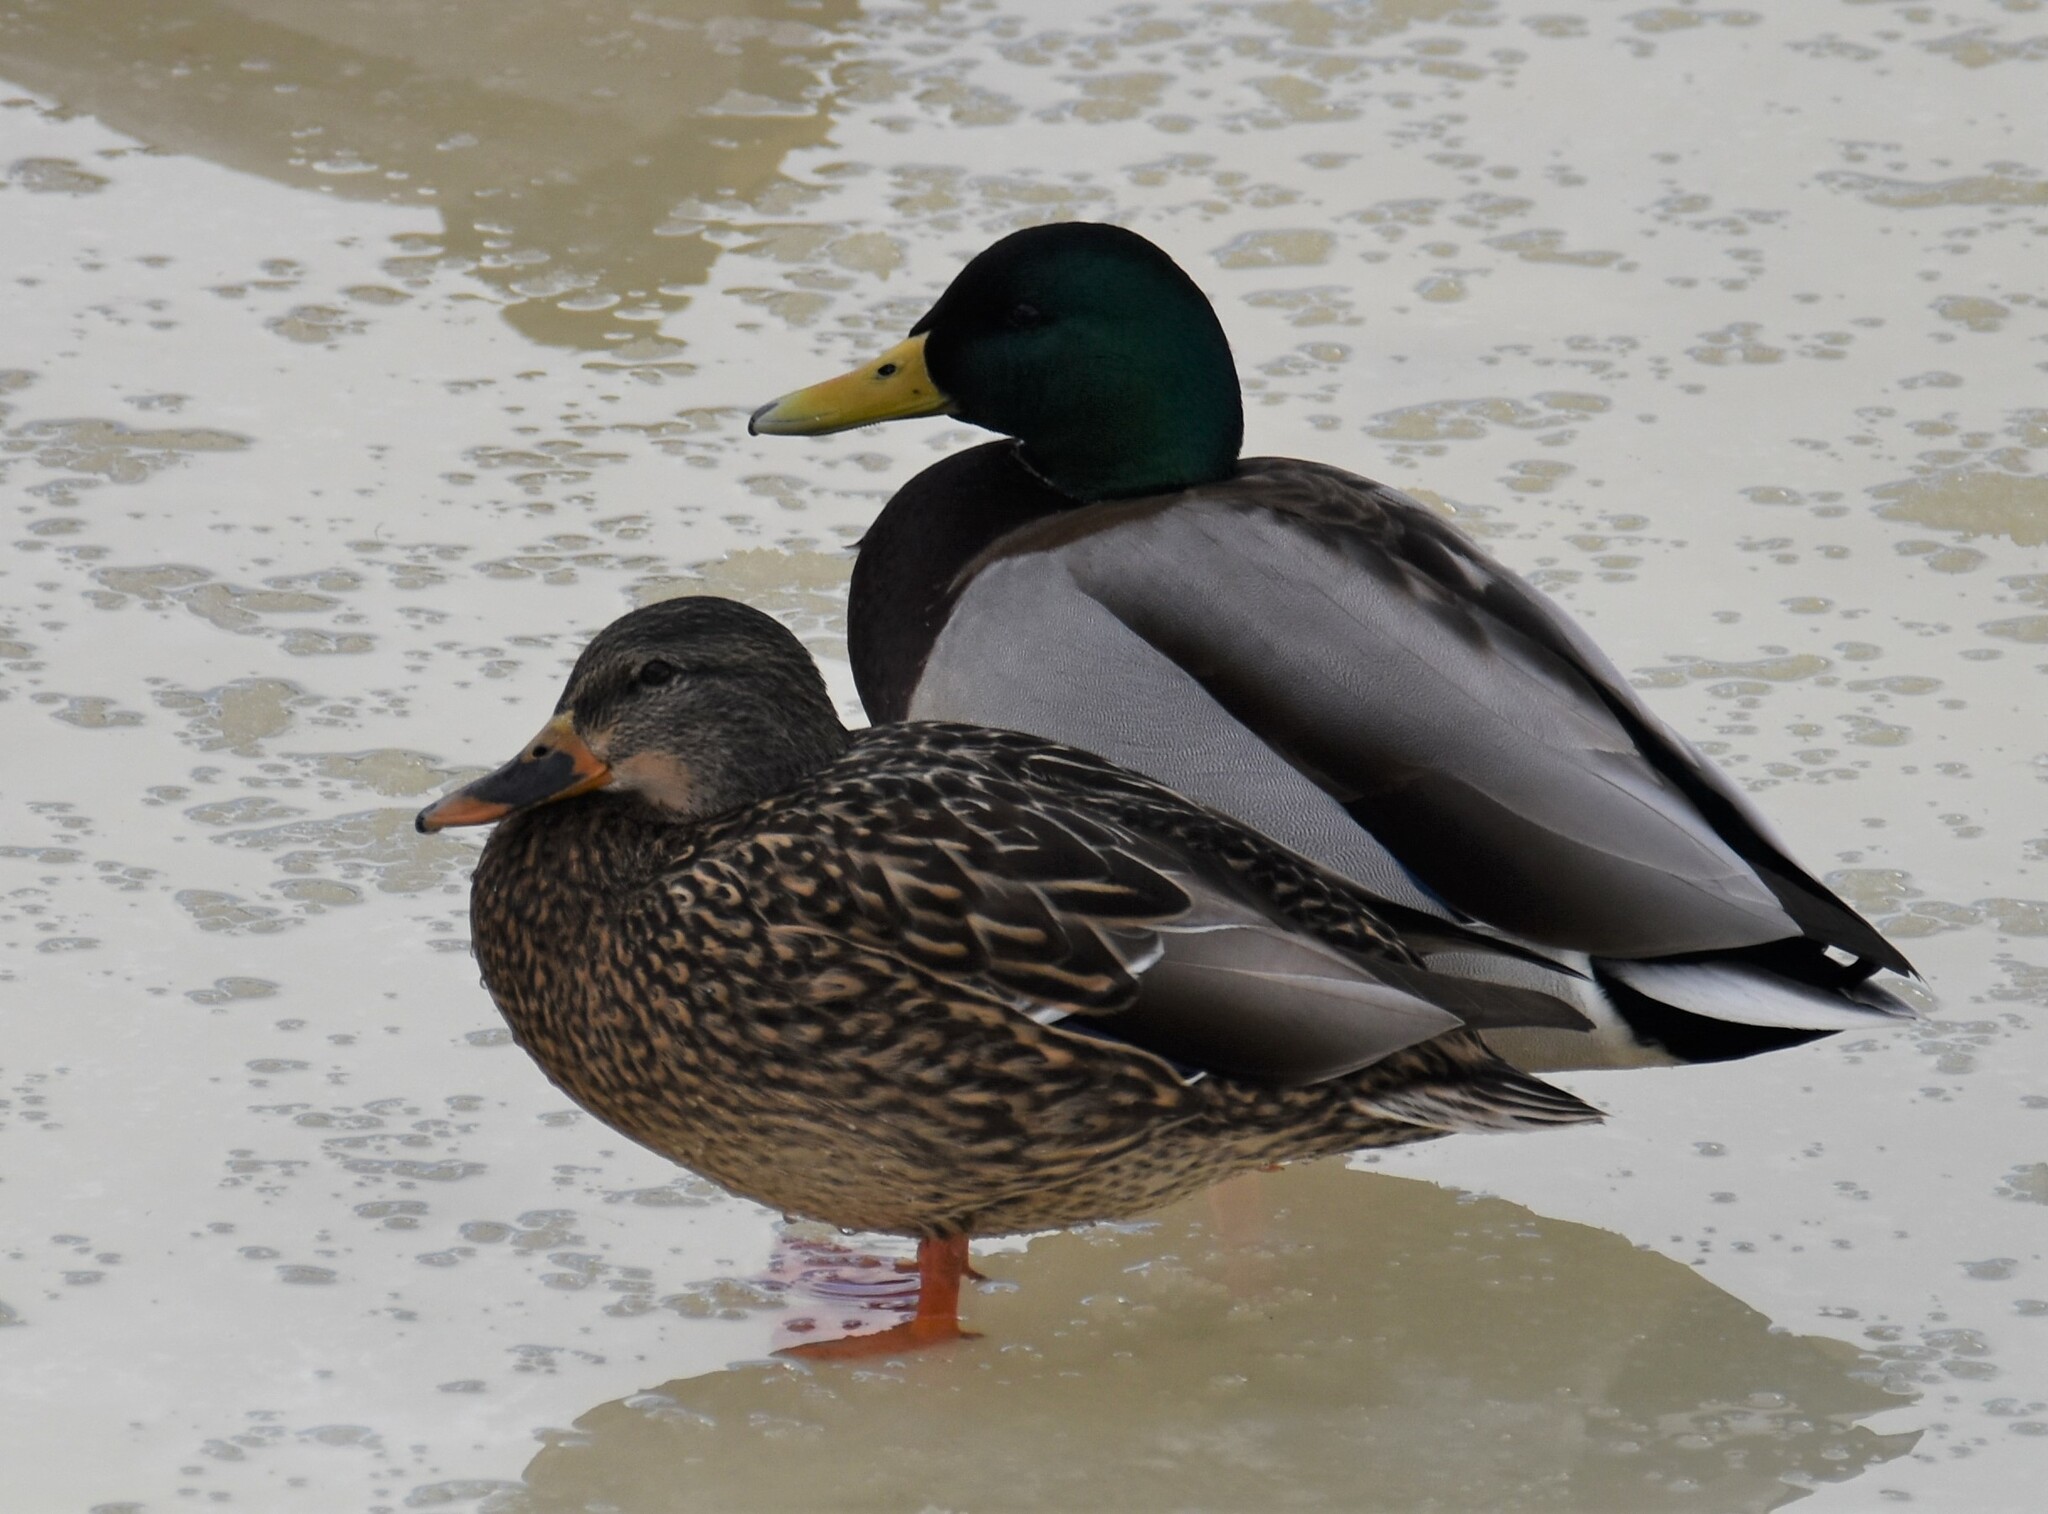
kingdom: Animalia
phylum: Chordata
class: Aves
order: Anseriformes
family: Anatidae
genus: Anas
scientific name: Anas platyrhynchos
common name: Mallard
